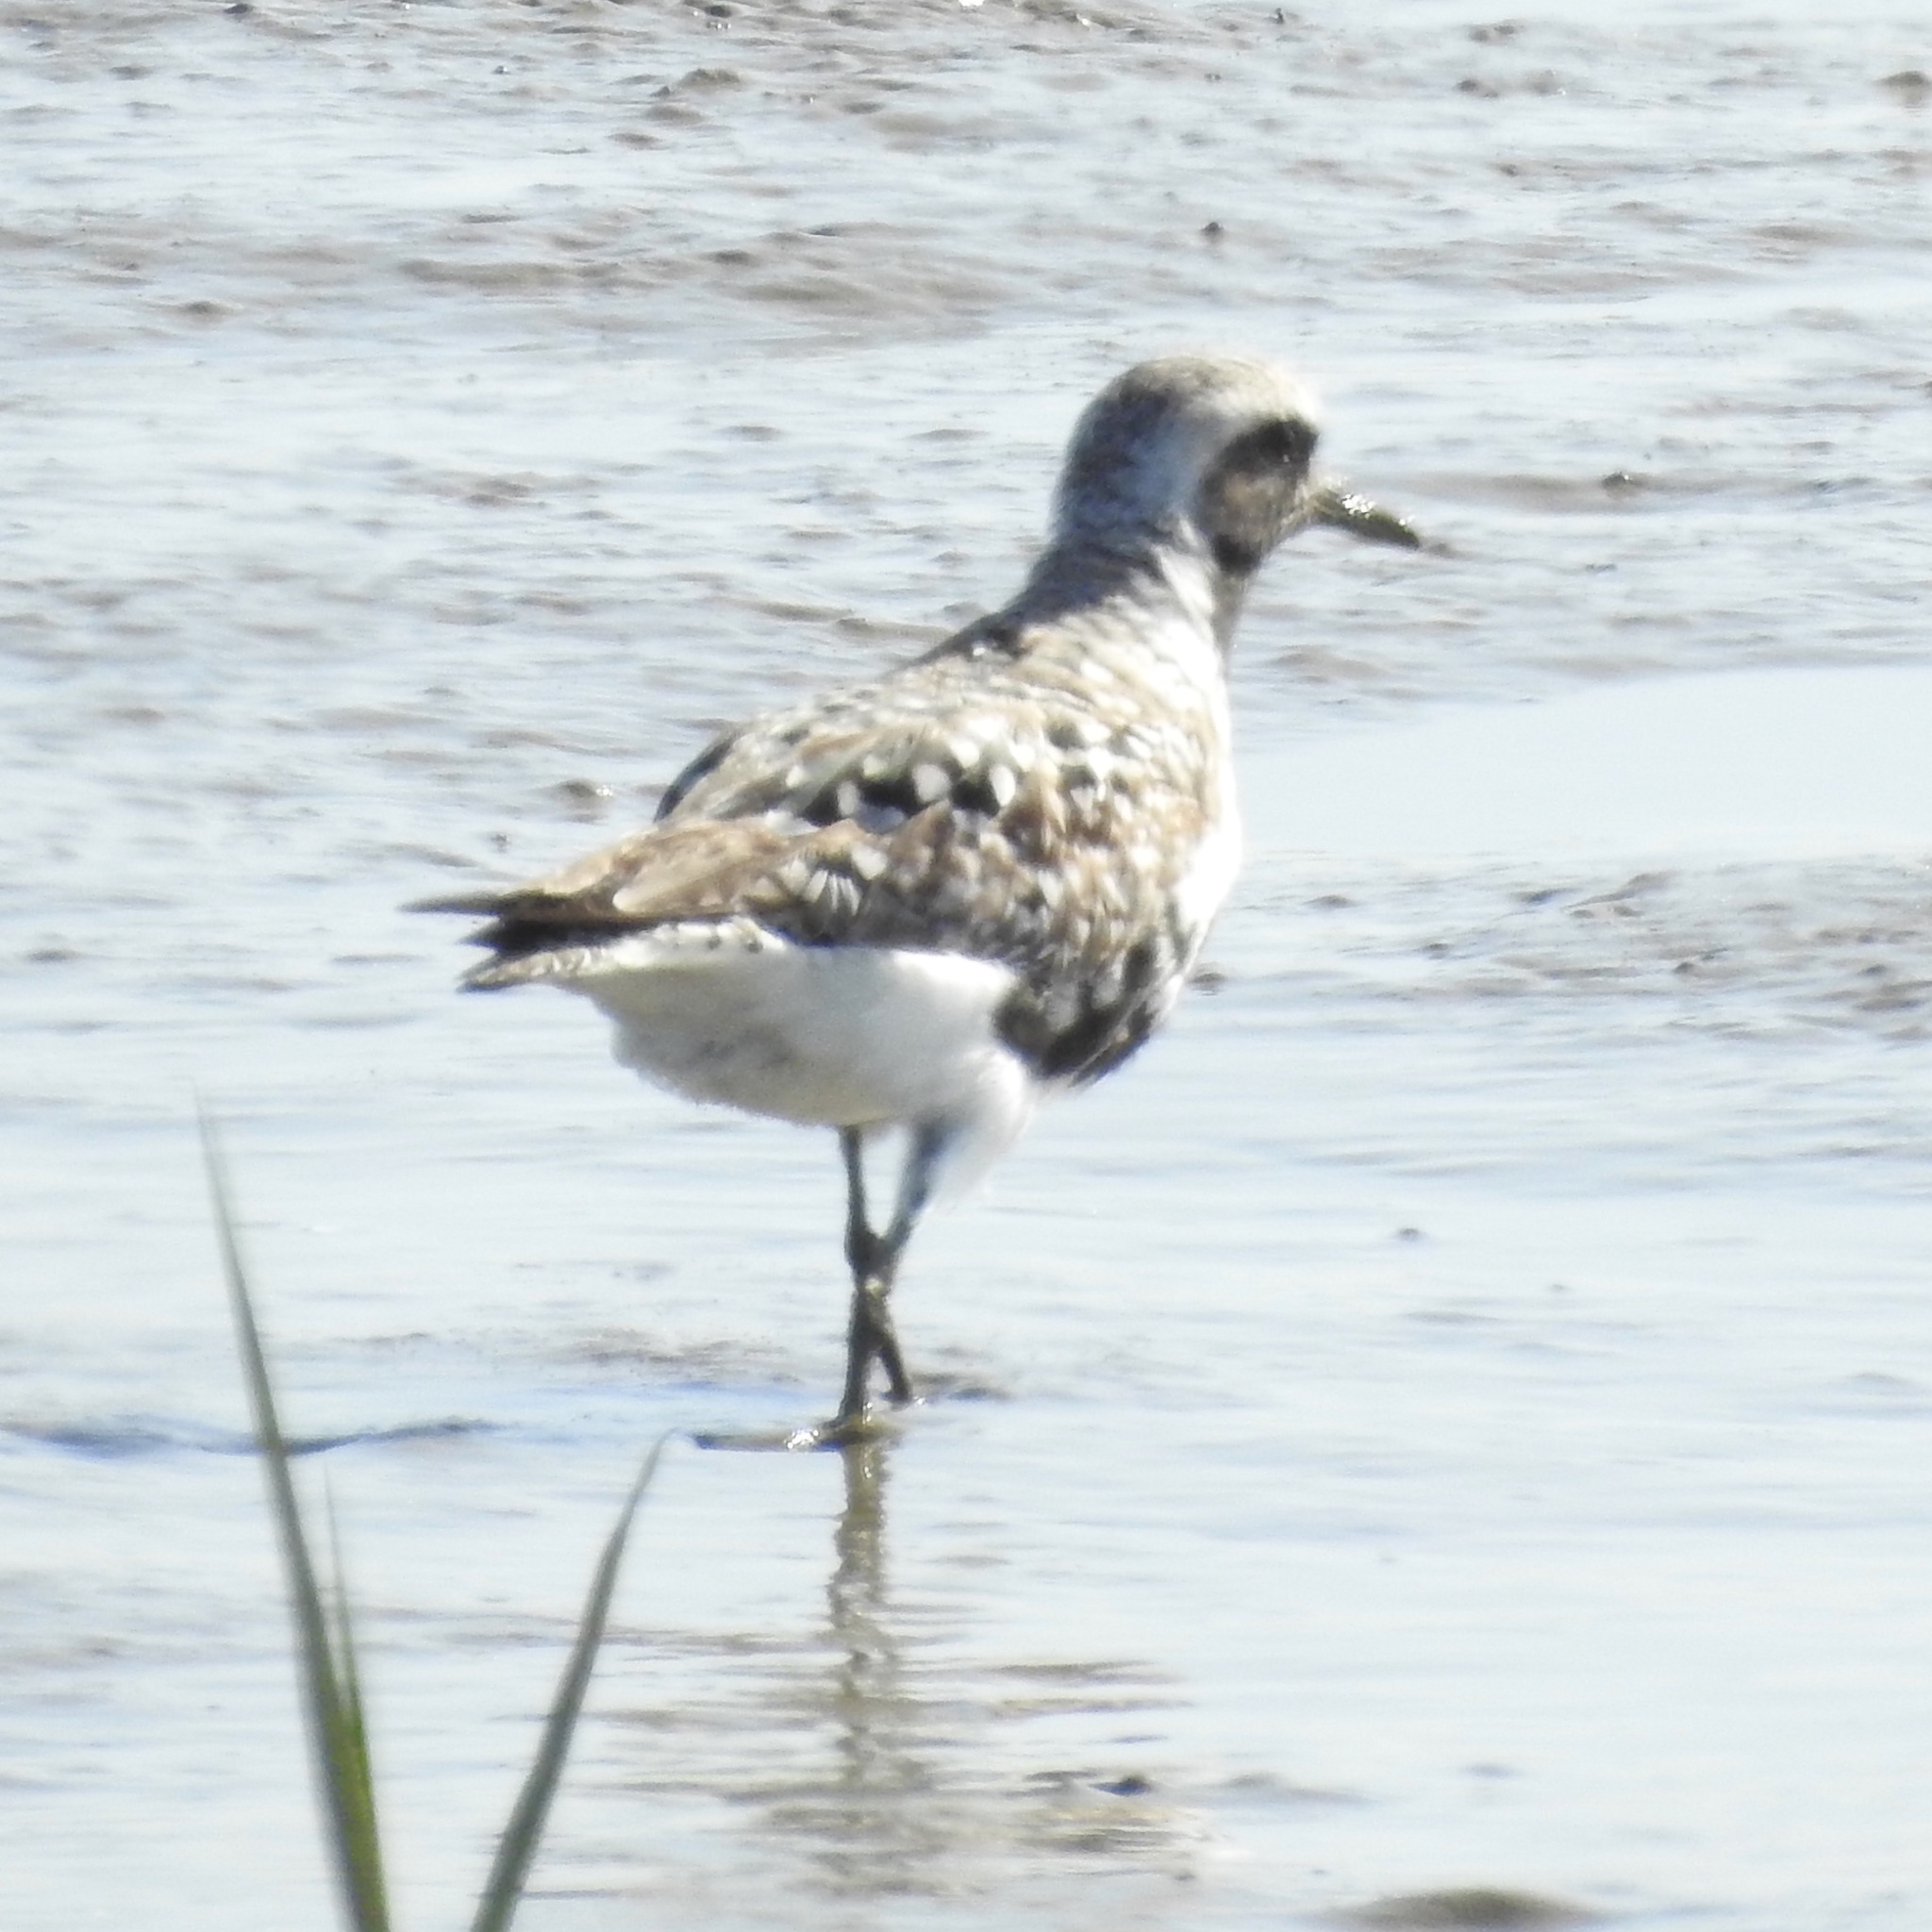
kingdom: Animalia
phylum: Chordata
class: Aves
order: Charadriiformes
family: Charadriidae
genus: Pluvialis
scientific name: Pluvialis squatarola
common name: Grey plover
